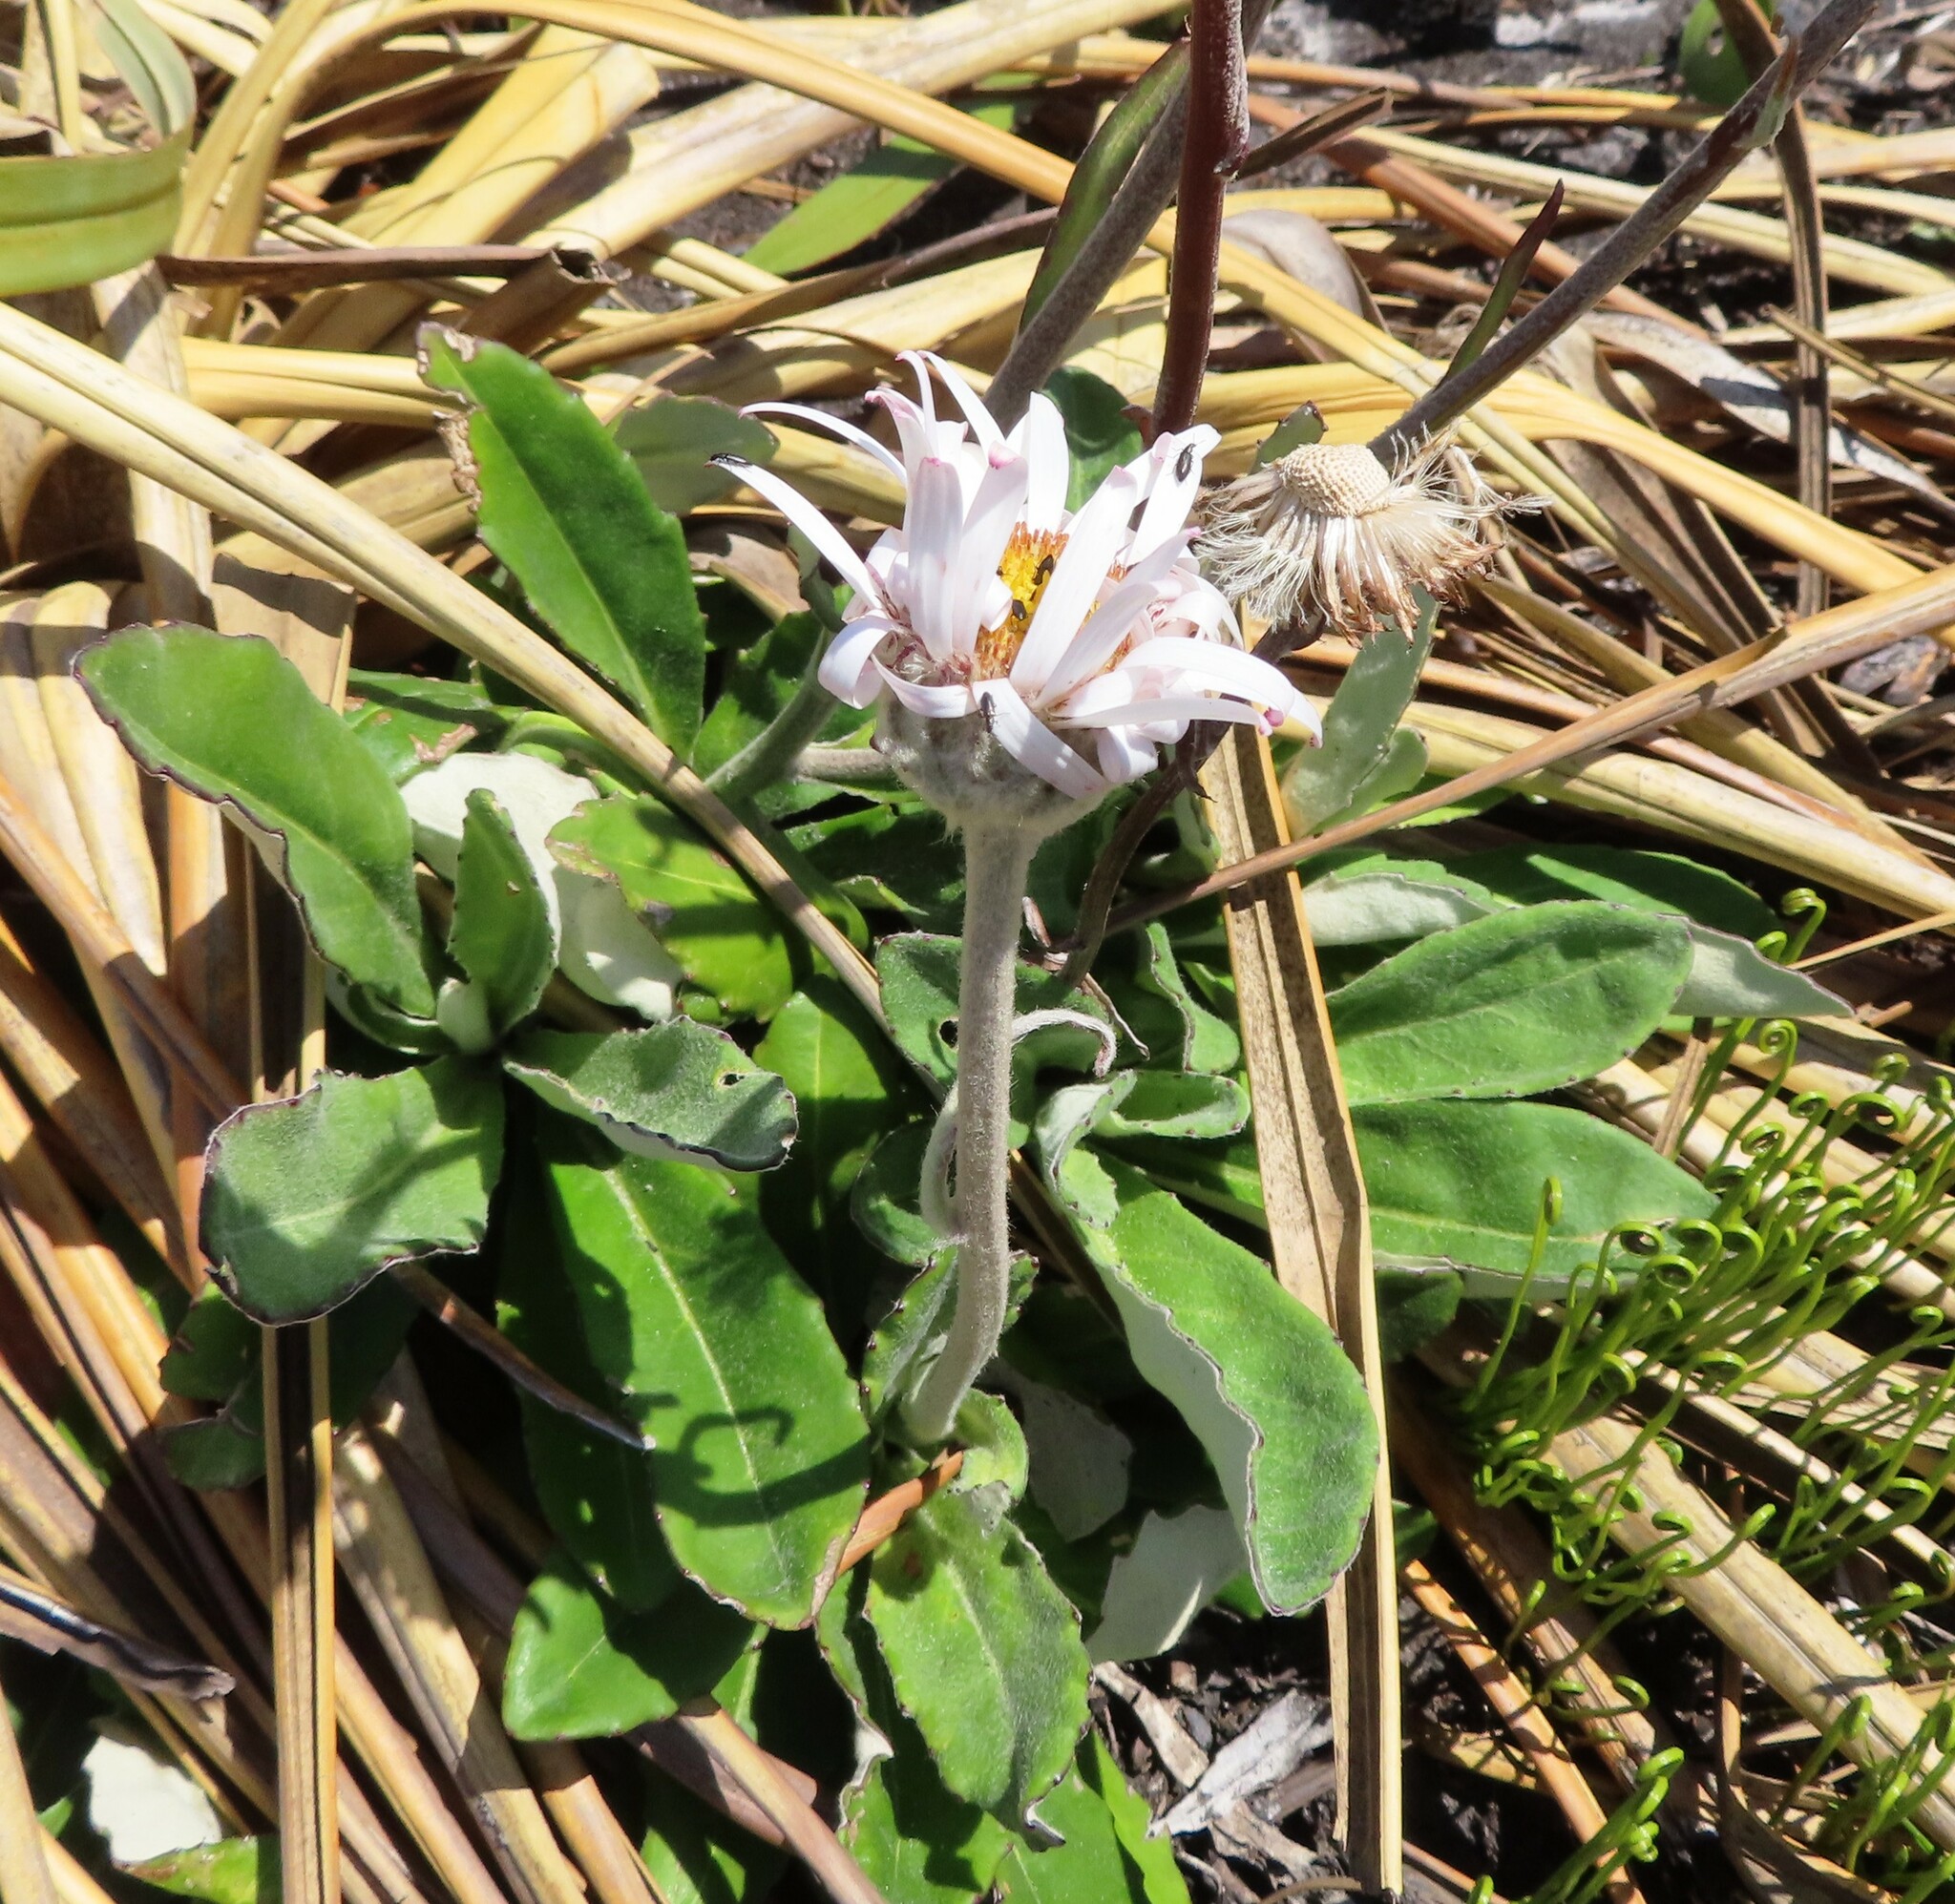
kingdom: Plantae
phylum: Tracheophyta
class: Magnoliopsida
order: Asterales
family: Asteraceae
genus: Zyrphelis
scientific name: Zyrphelis crenata
